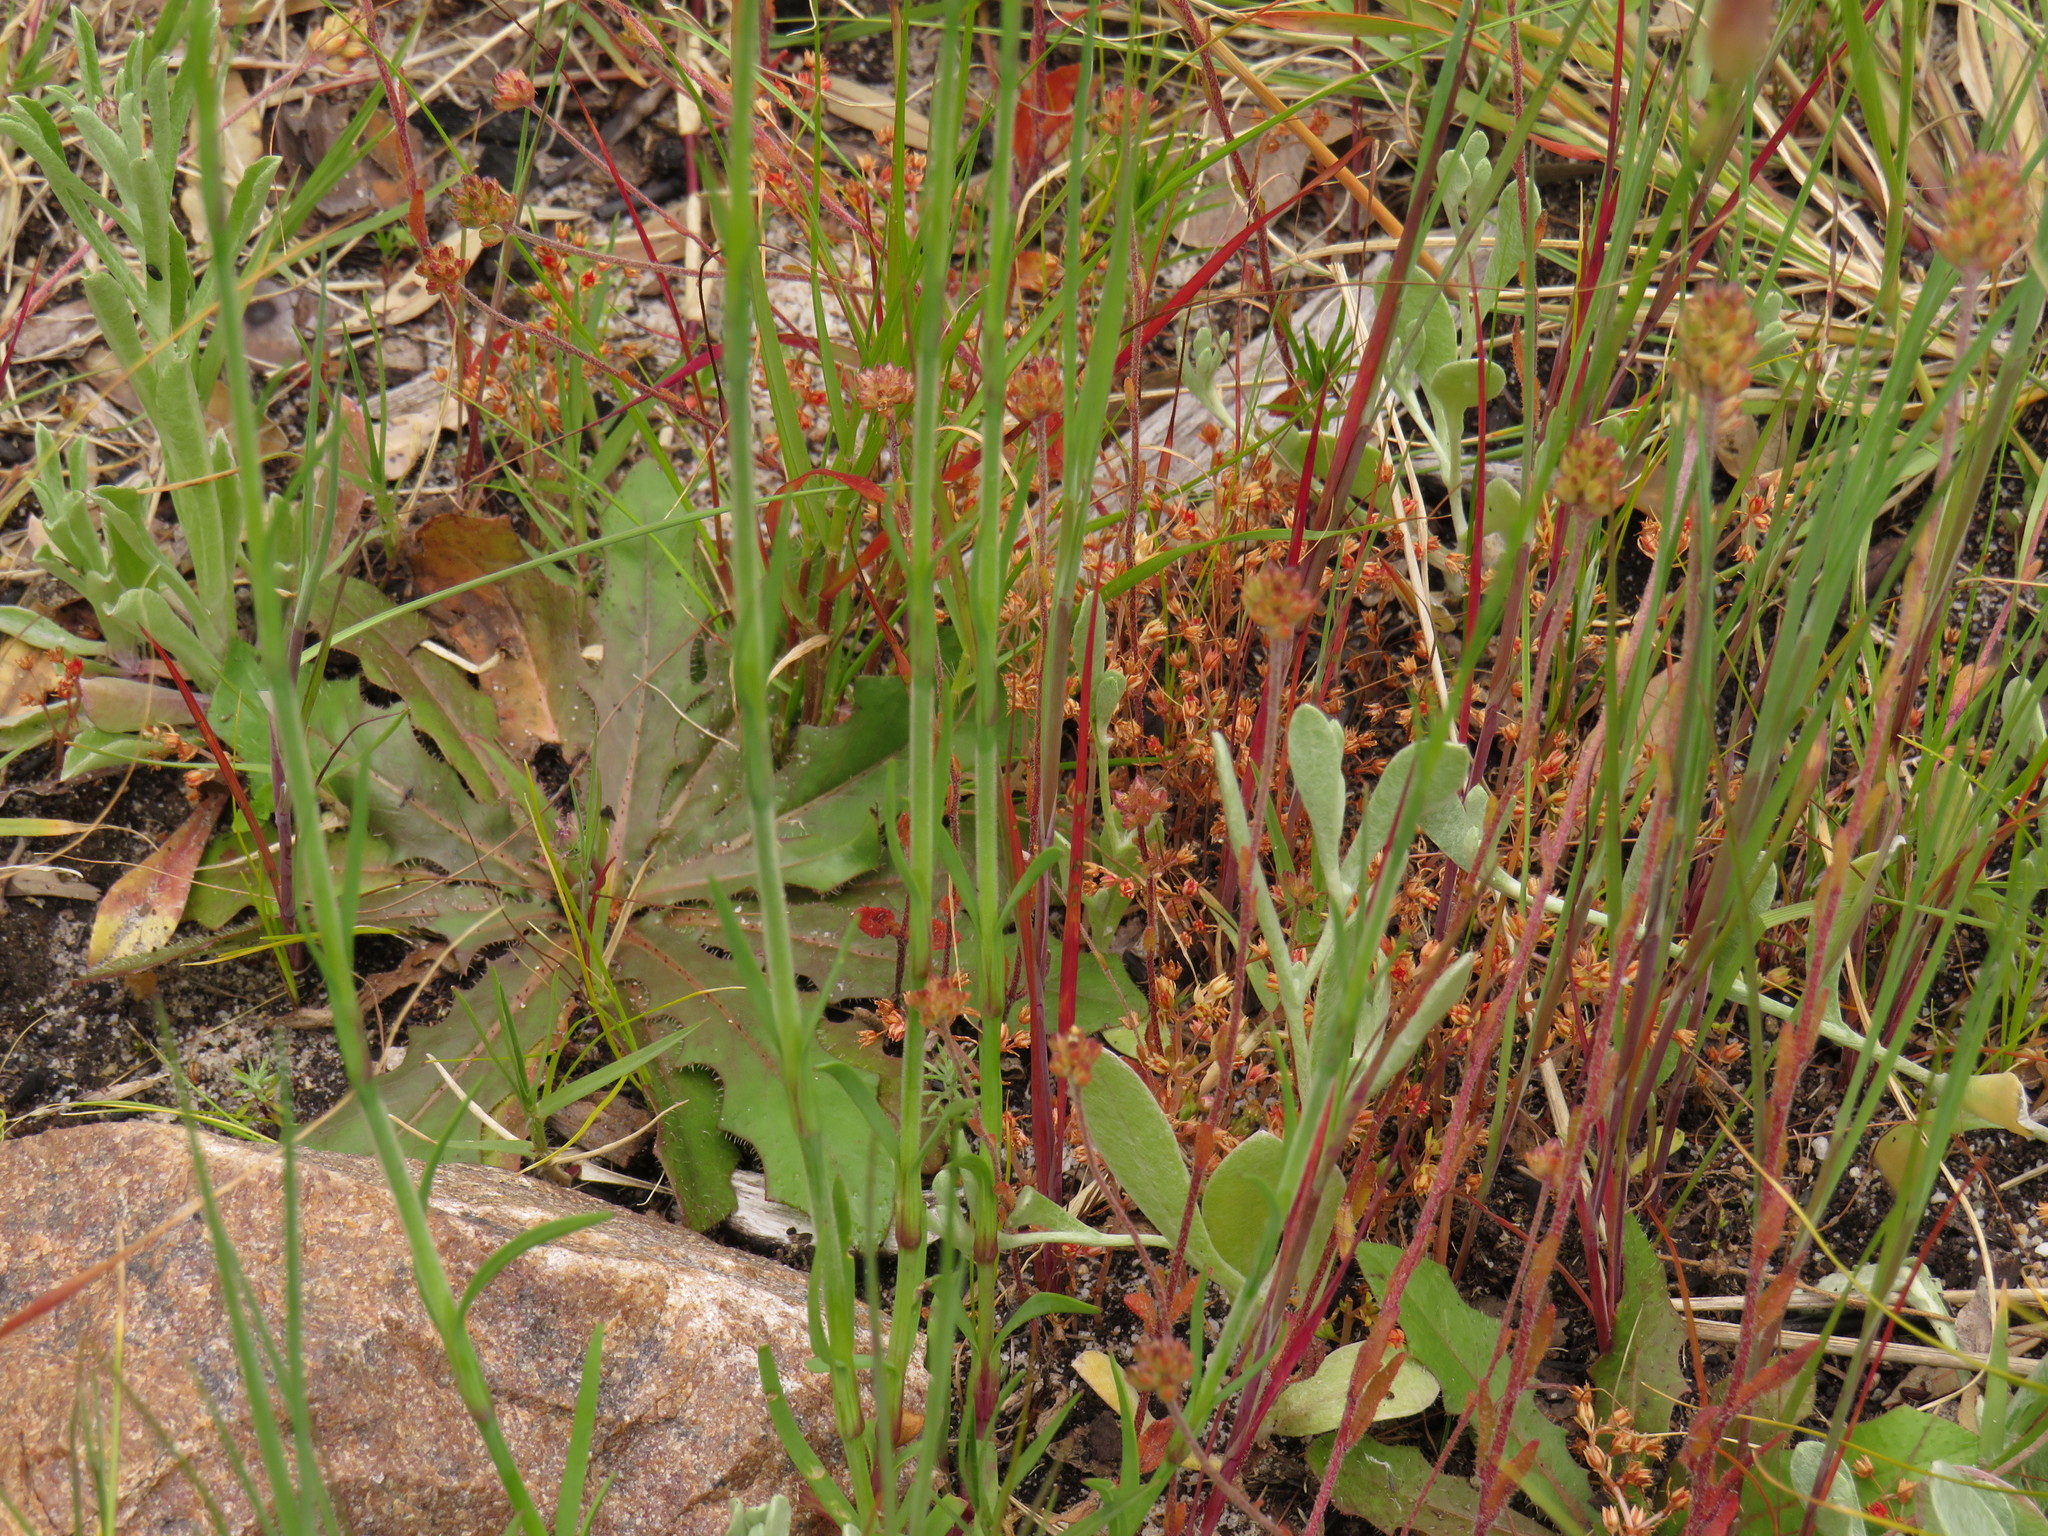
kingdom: Plantae
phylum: Tracheophyta
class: Magnoliopsida
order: Caryophyllales
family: Caryophyllaceae
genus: Petrorhagia
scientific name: Petrorhagia prolifera
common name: Proliferous pink
